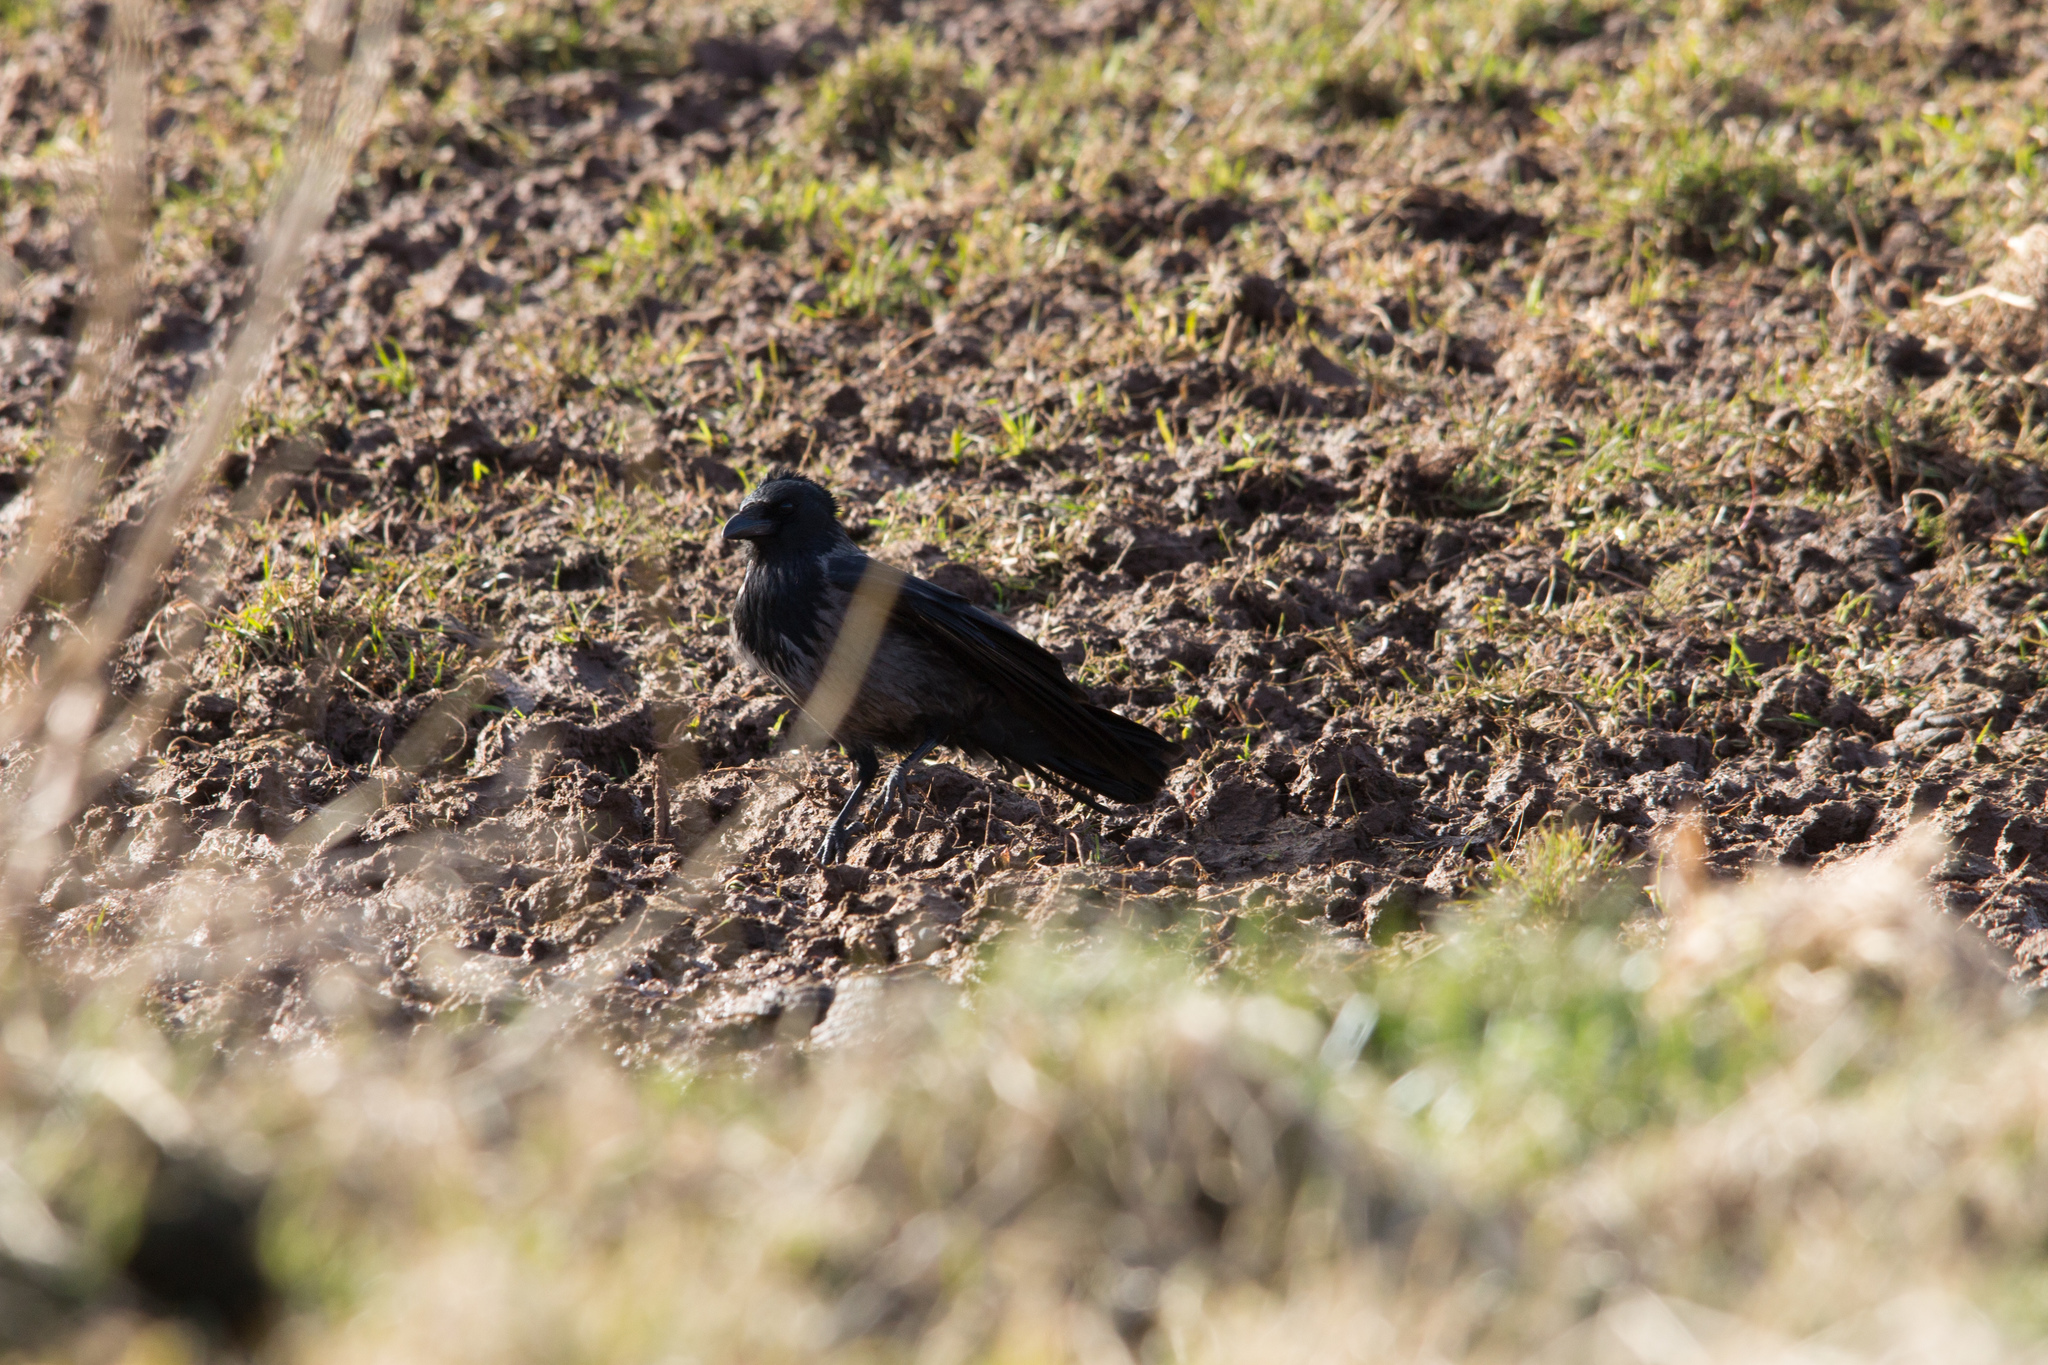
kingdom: Animalia
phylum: Chordata
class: Aves
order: Passeriformes
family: Corvidae
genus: Corvus
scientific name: Corvus
